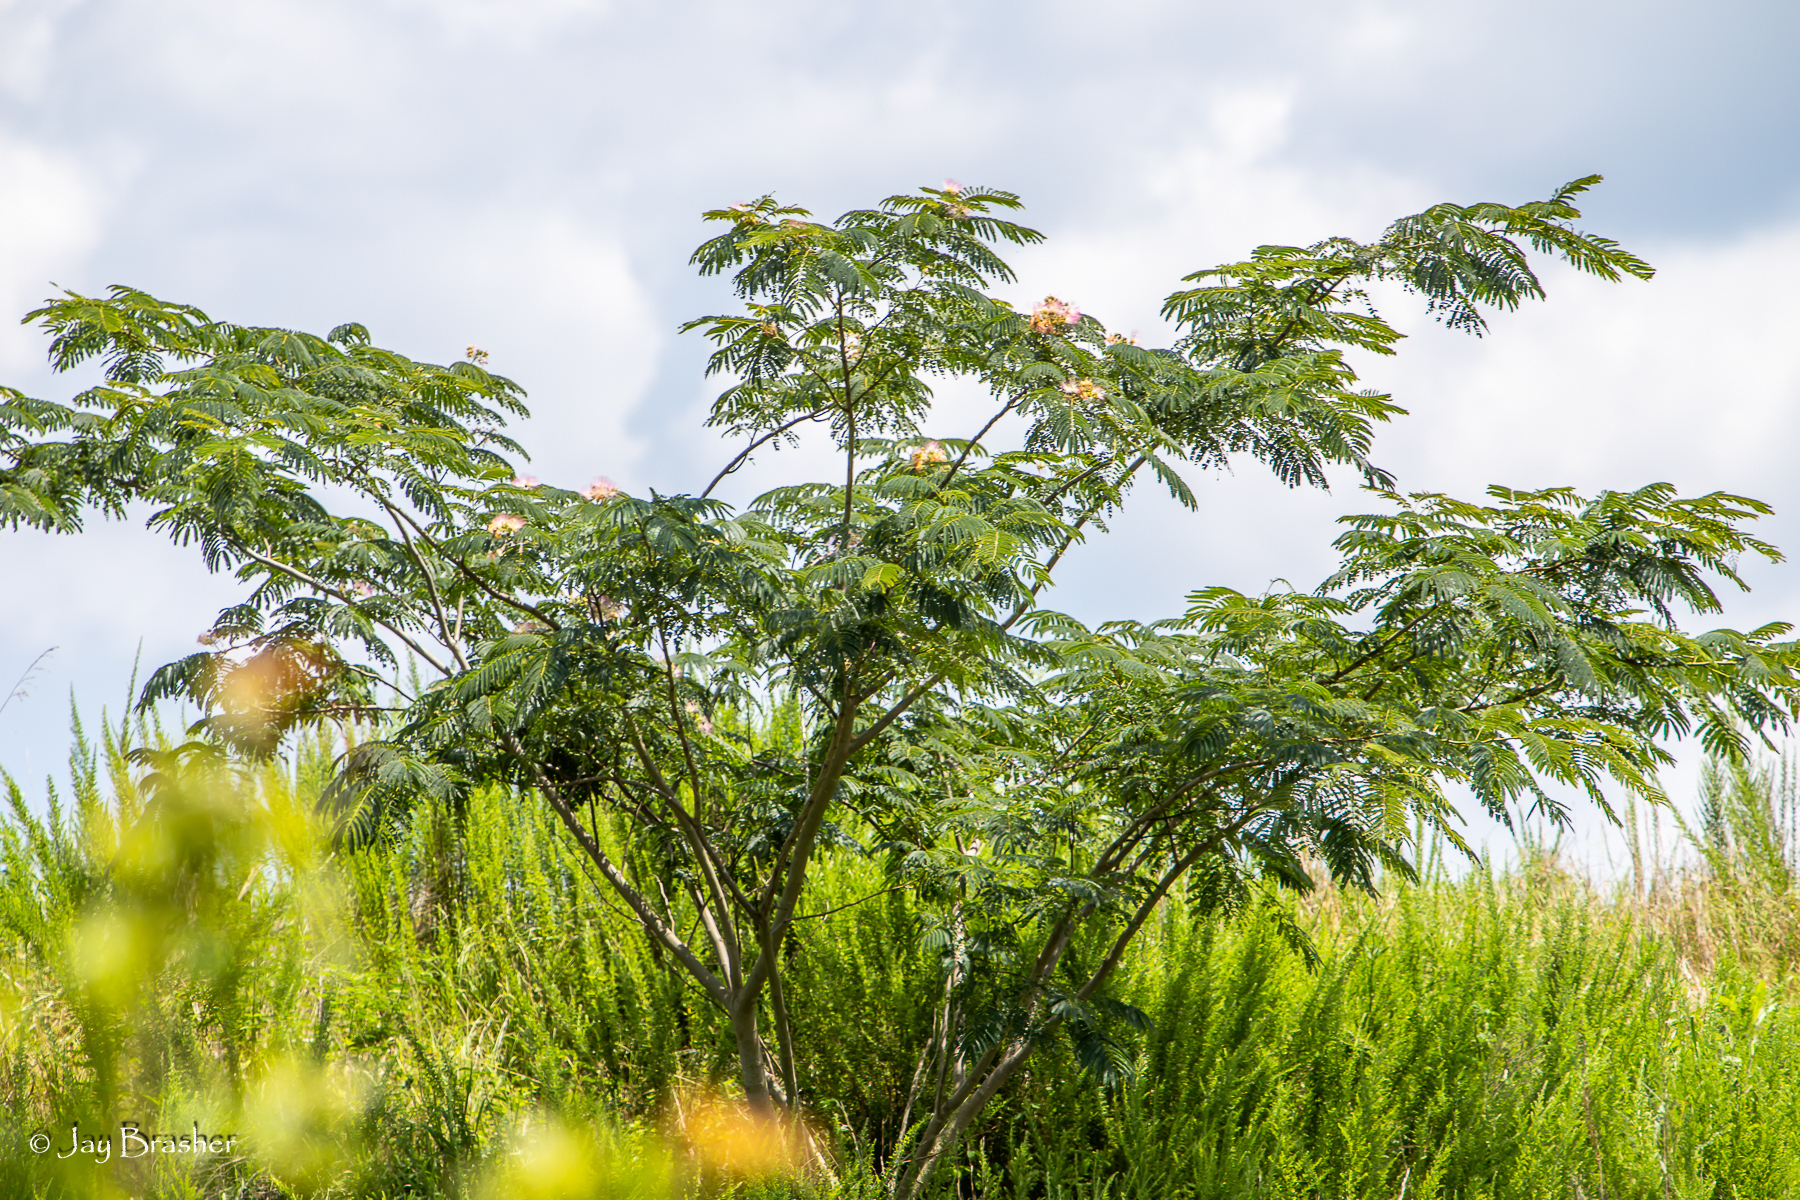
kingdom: Plantae
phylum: Tracheophyta
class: Magnoliopsida
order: Fabales
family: Fabaceae
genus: Albizia
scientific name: Albizia julibrissin
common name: Silktree
